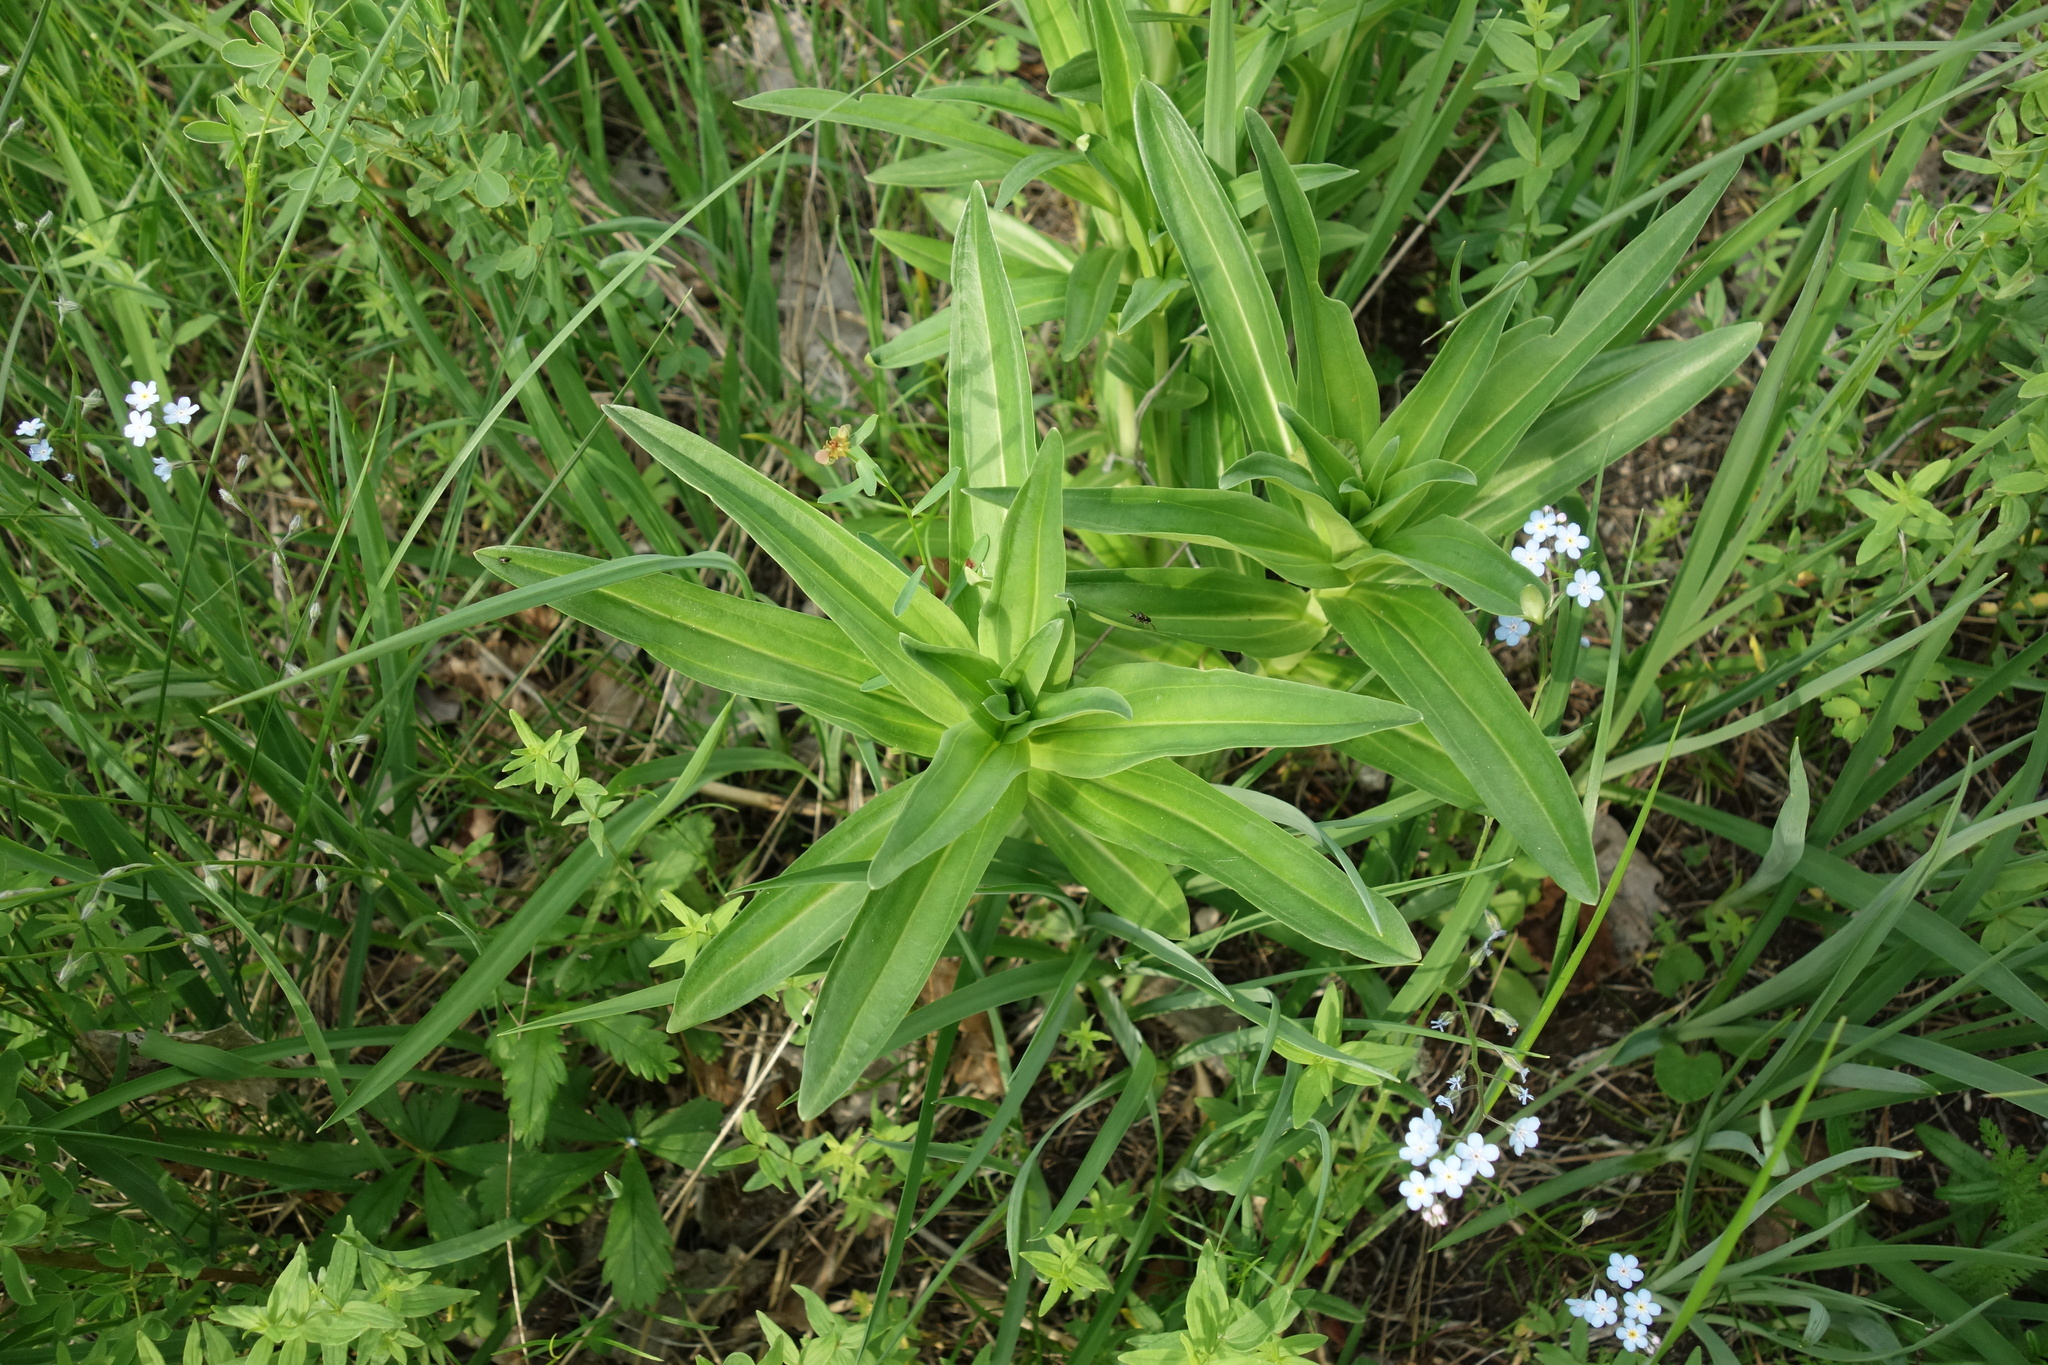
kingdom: Plantae
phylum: Tracheophyta
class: Magnoliopsida
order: Gentianales
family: Gentianaceae
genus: Gentiana
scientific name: Gentiana cruciata
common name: Cross gentian
